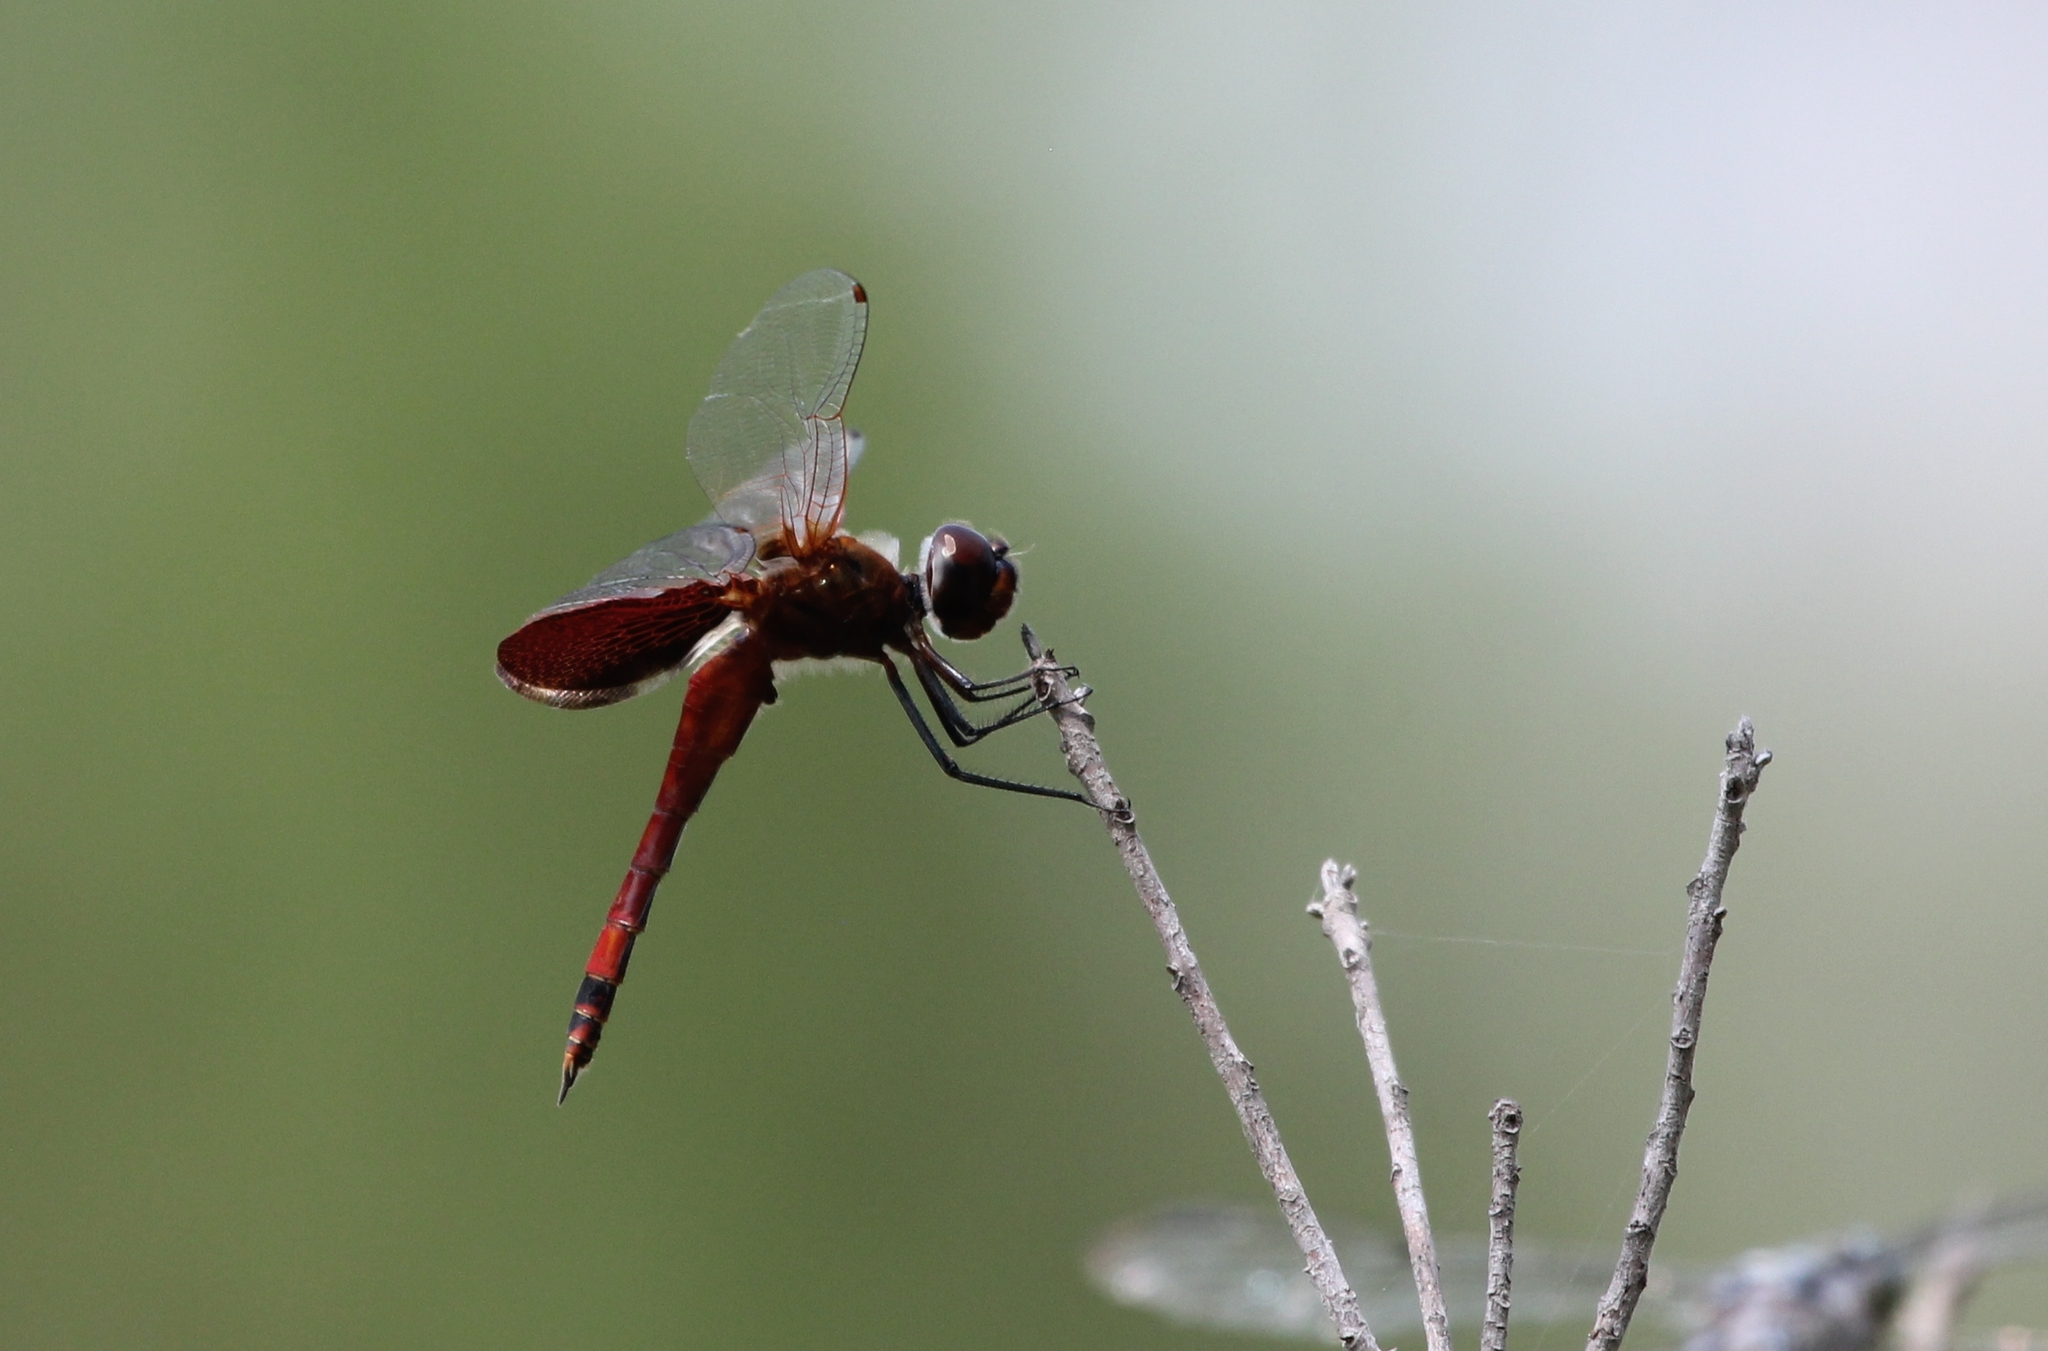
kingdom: Animalia
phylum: Arthropoda
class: Insecta
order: Odonata
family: Libellulidae
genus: Tramea
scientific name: Tramea carolina
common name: Carolina saddlebags
